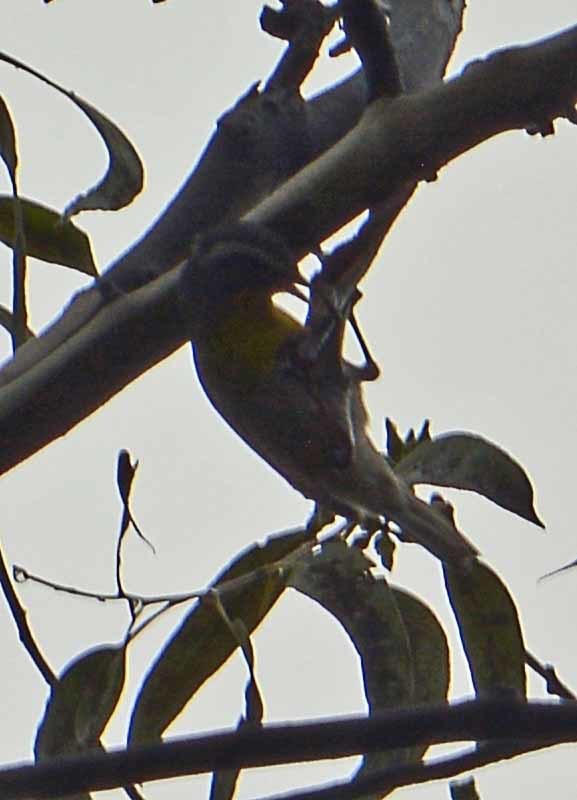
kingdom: Animalia
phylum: Chordata
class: Aves
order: Passeriformes
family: Parulidae
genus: Oreothlypis
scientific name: Oreothlypis superciliosa
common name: Crescent-chested warbler
